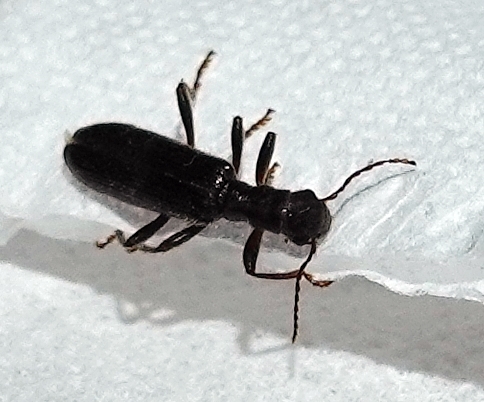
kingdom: Animalia
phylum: Arthropoda
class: Insecta
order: Coleoptera
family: Cleridae
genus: Cymatodera
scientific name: Cymatodera inornata
